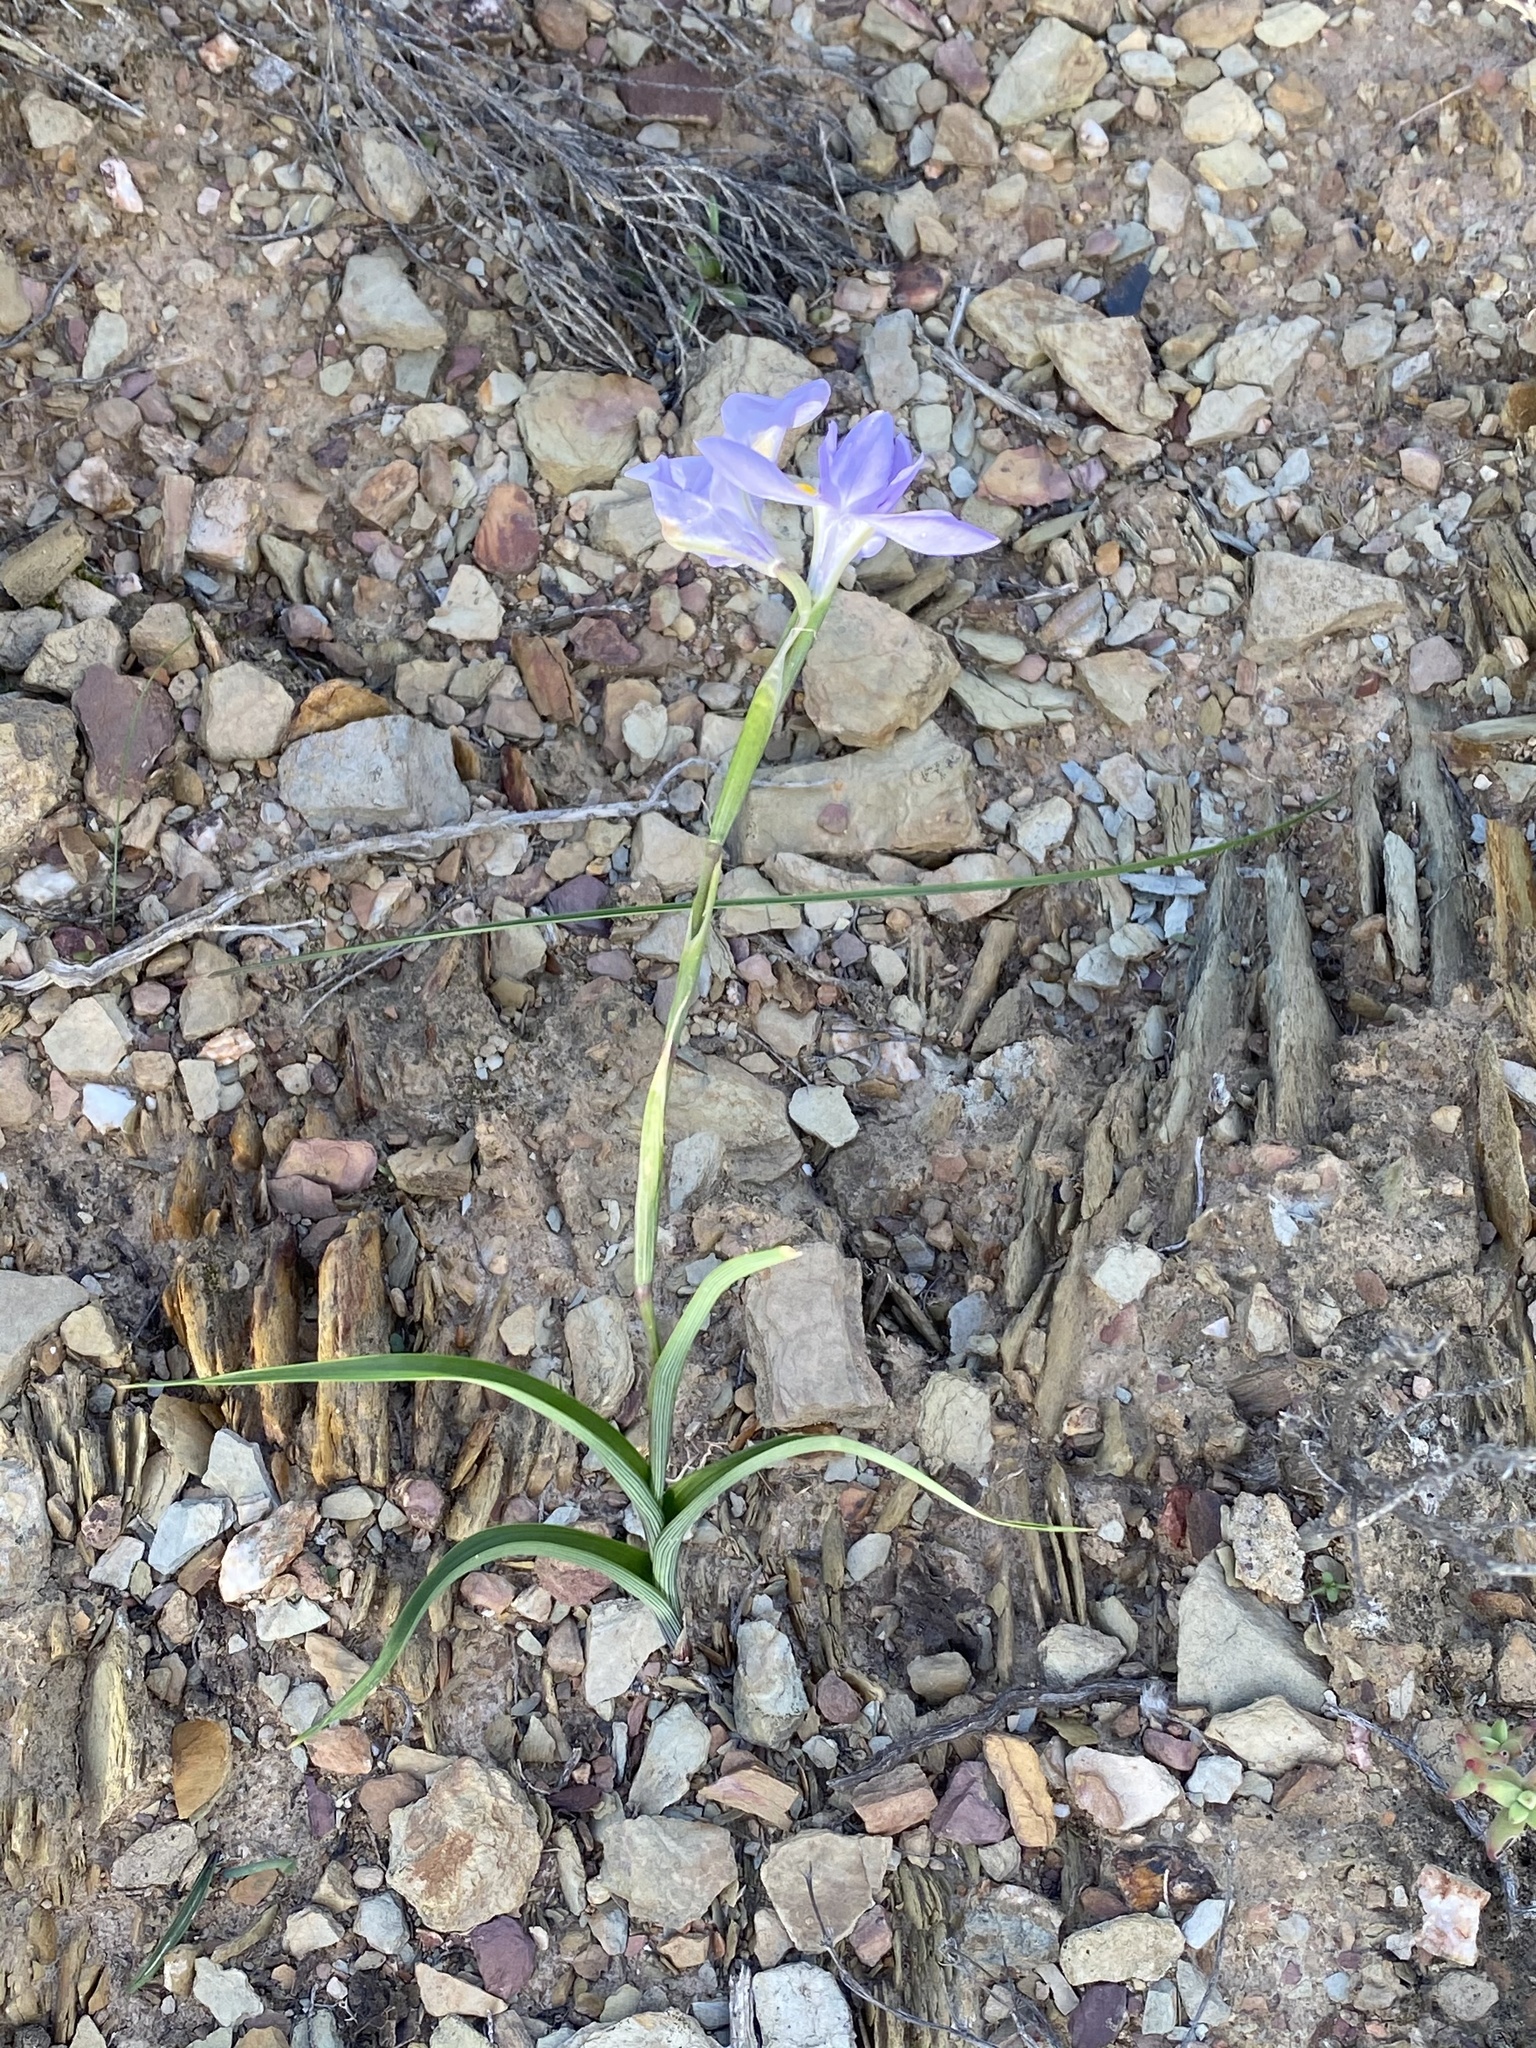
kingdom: Plantae
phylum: Tracheophyta
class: Liliopsida
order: Asparagales
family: Iridaceae
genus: Moraea
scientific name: Moraea polystachya
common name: Blue-tulip
